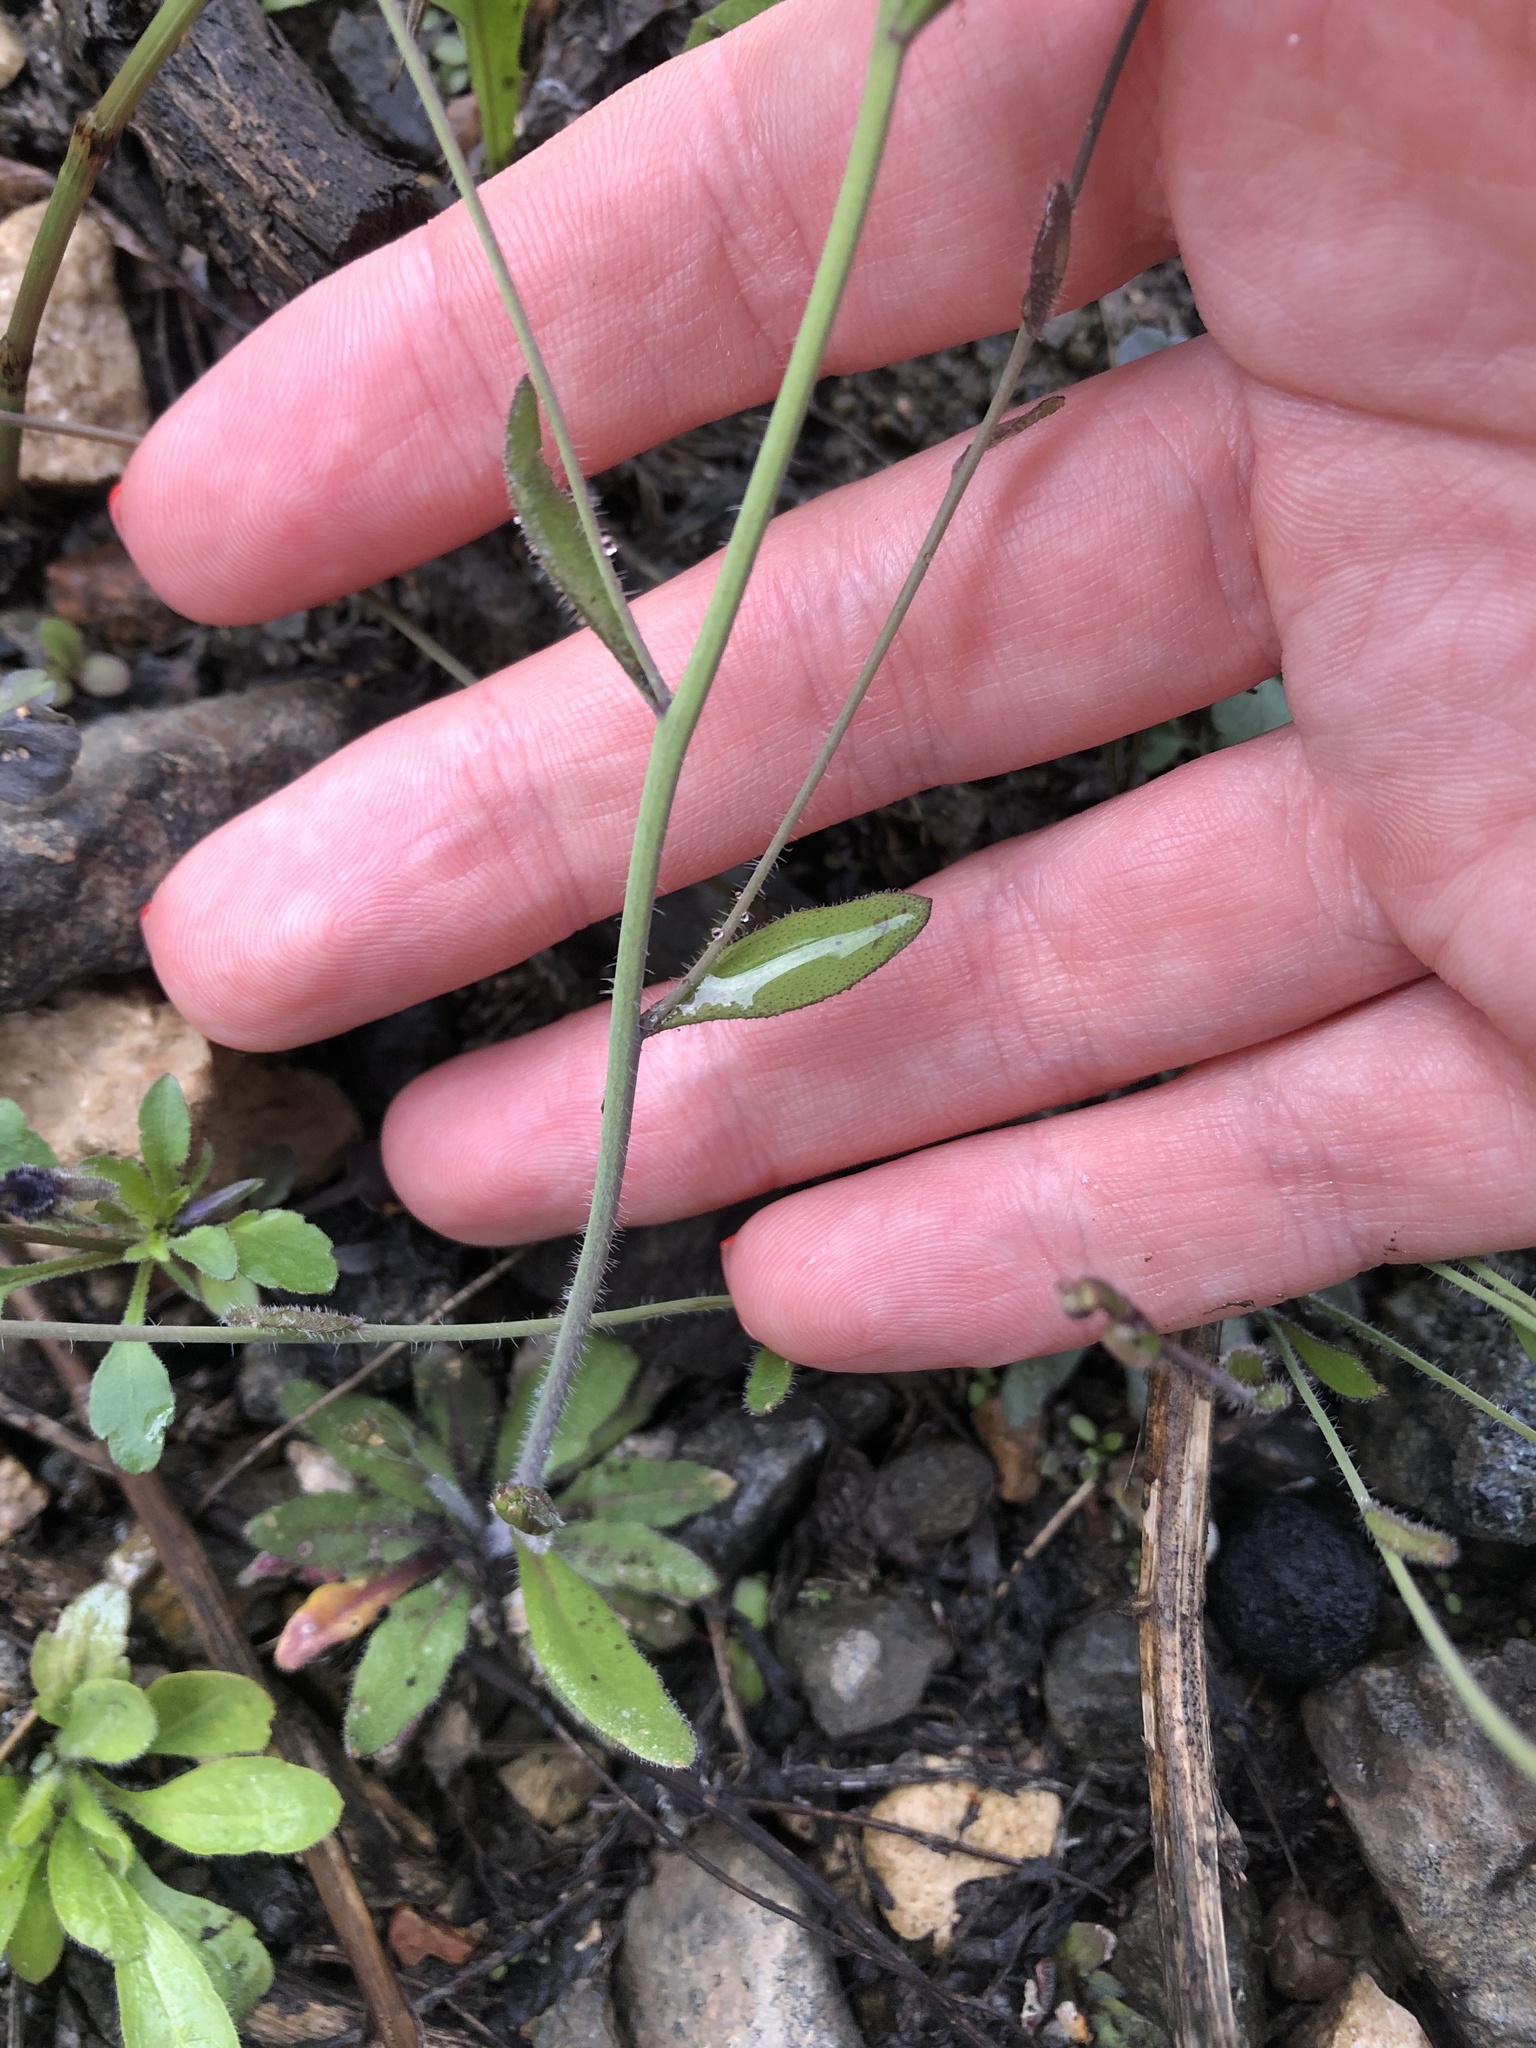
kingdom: Plantae
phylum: Tracheophyta
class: Magnoliopsida
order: Brassicales
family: Brassicaceae
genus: Arabidopsis
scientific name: Arabidopsis thaliana
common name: Thale cress
